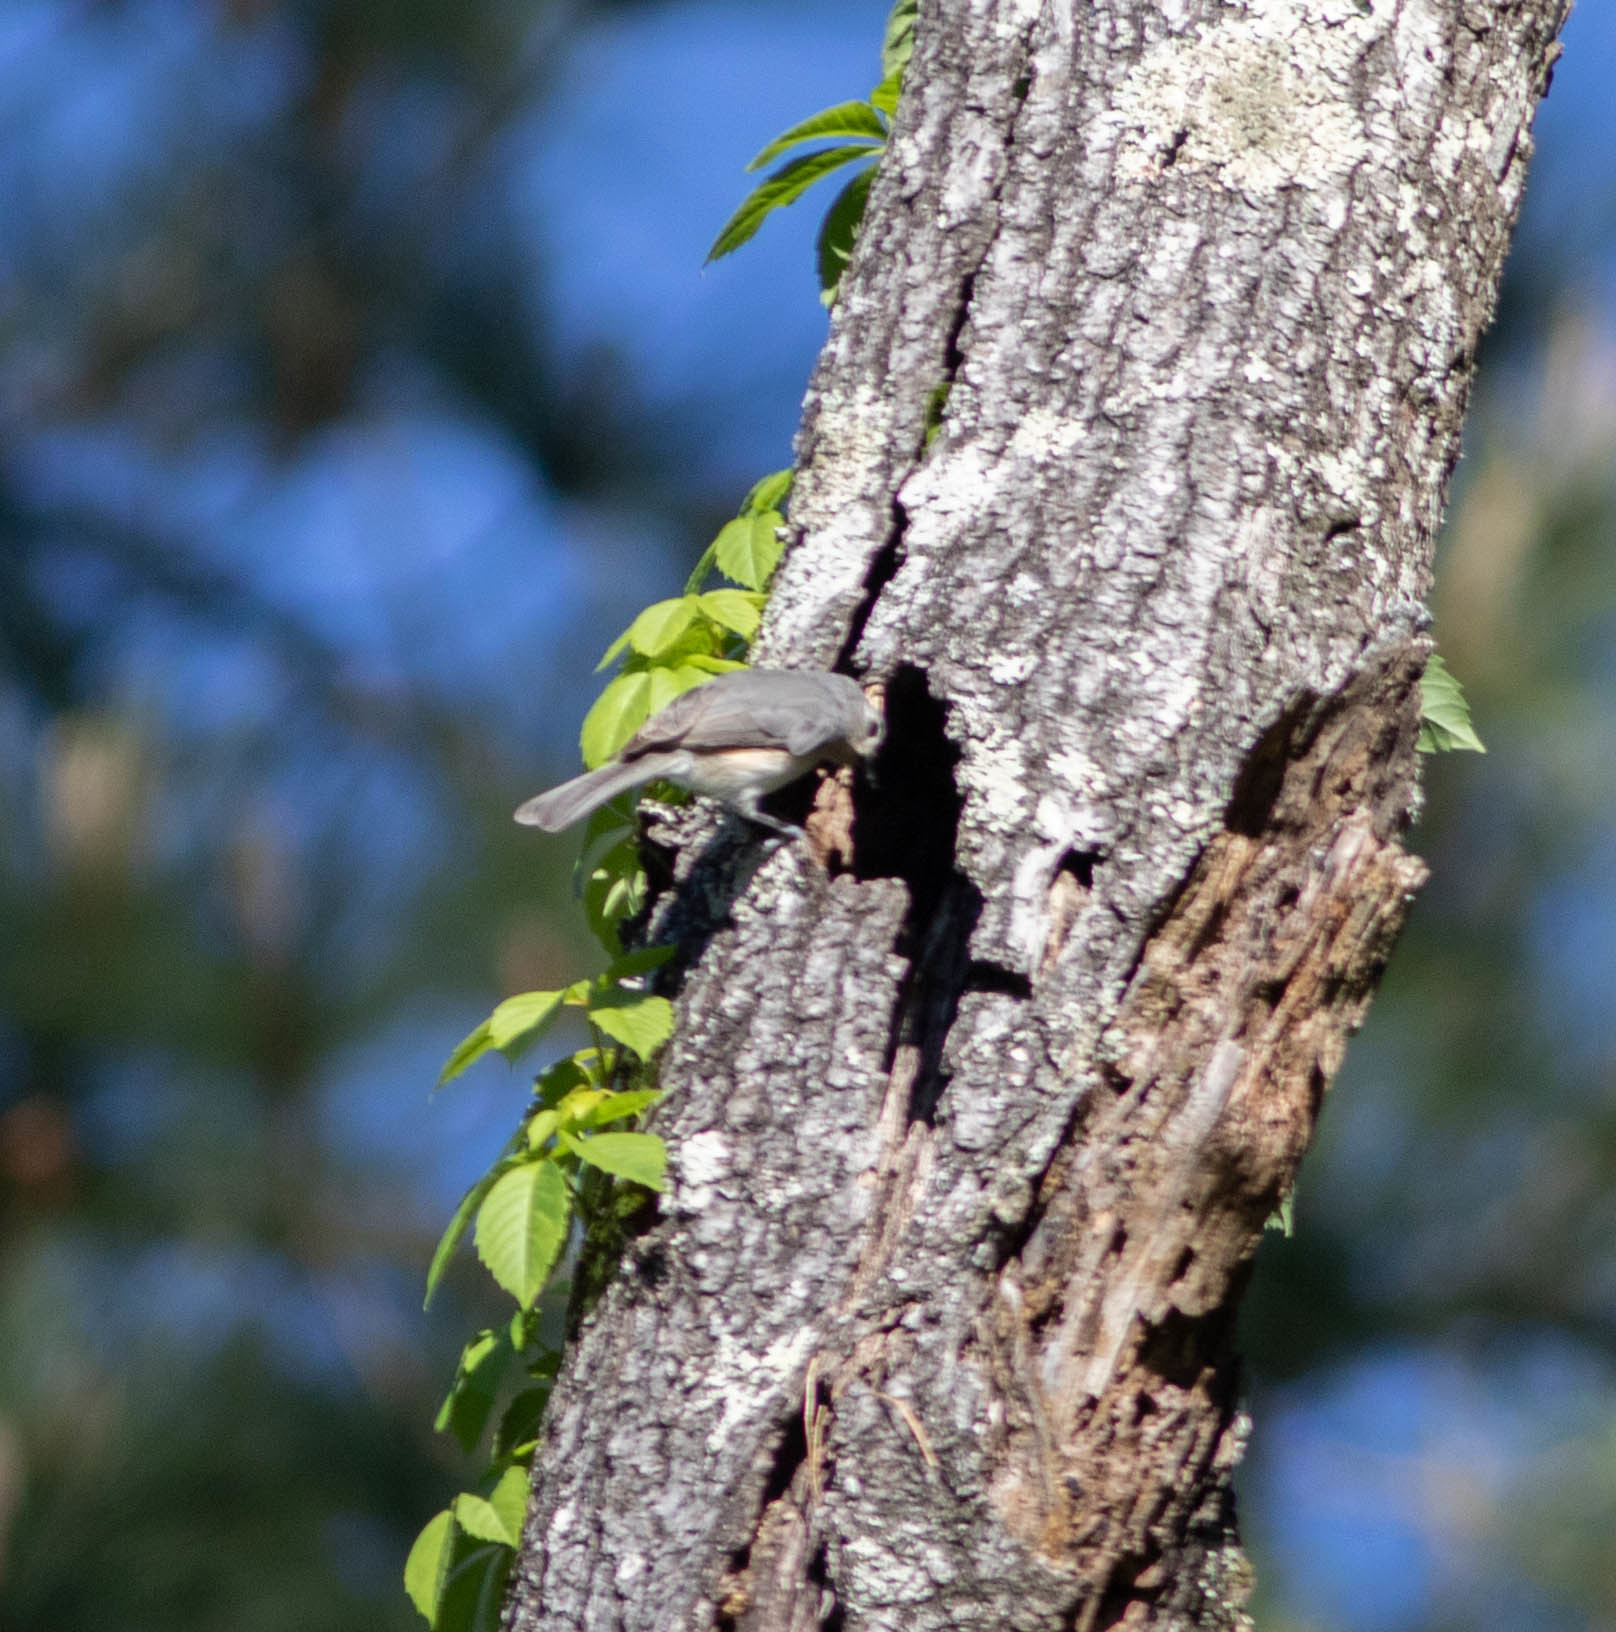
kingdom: Animalia
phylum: Chordata
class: Aves
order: Passeriformes
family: Paridae
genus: Baeolophus
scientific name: Baeolophus bicolor
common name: Tufted titmouse
